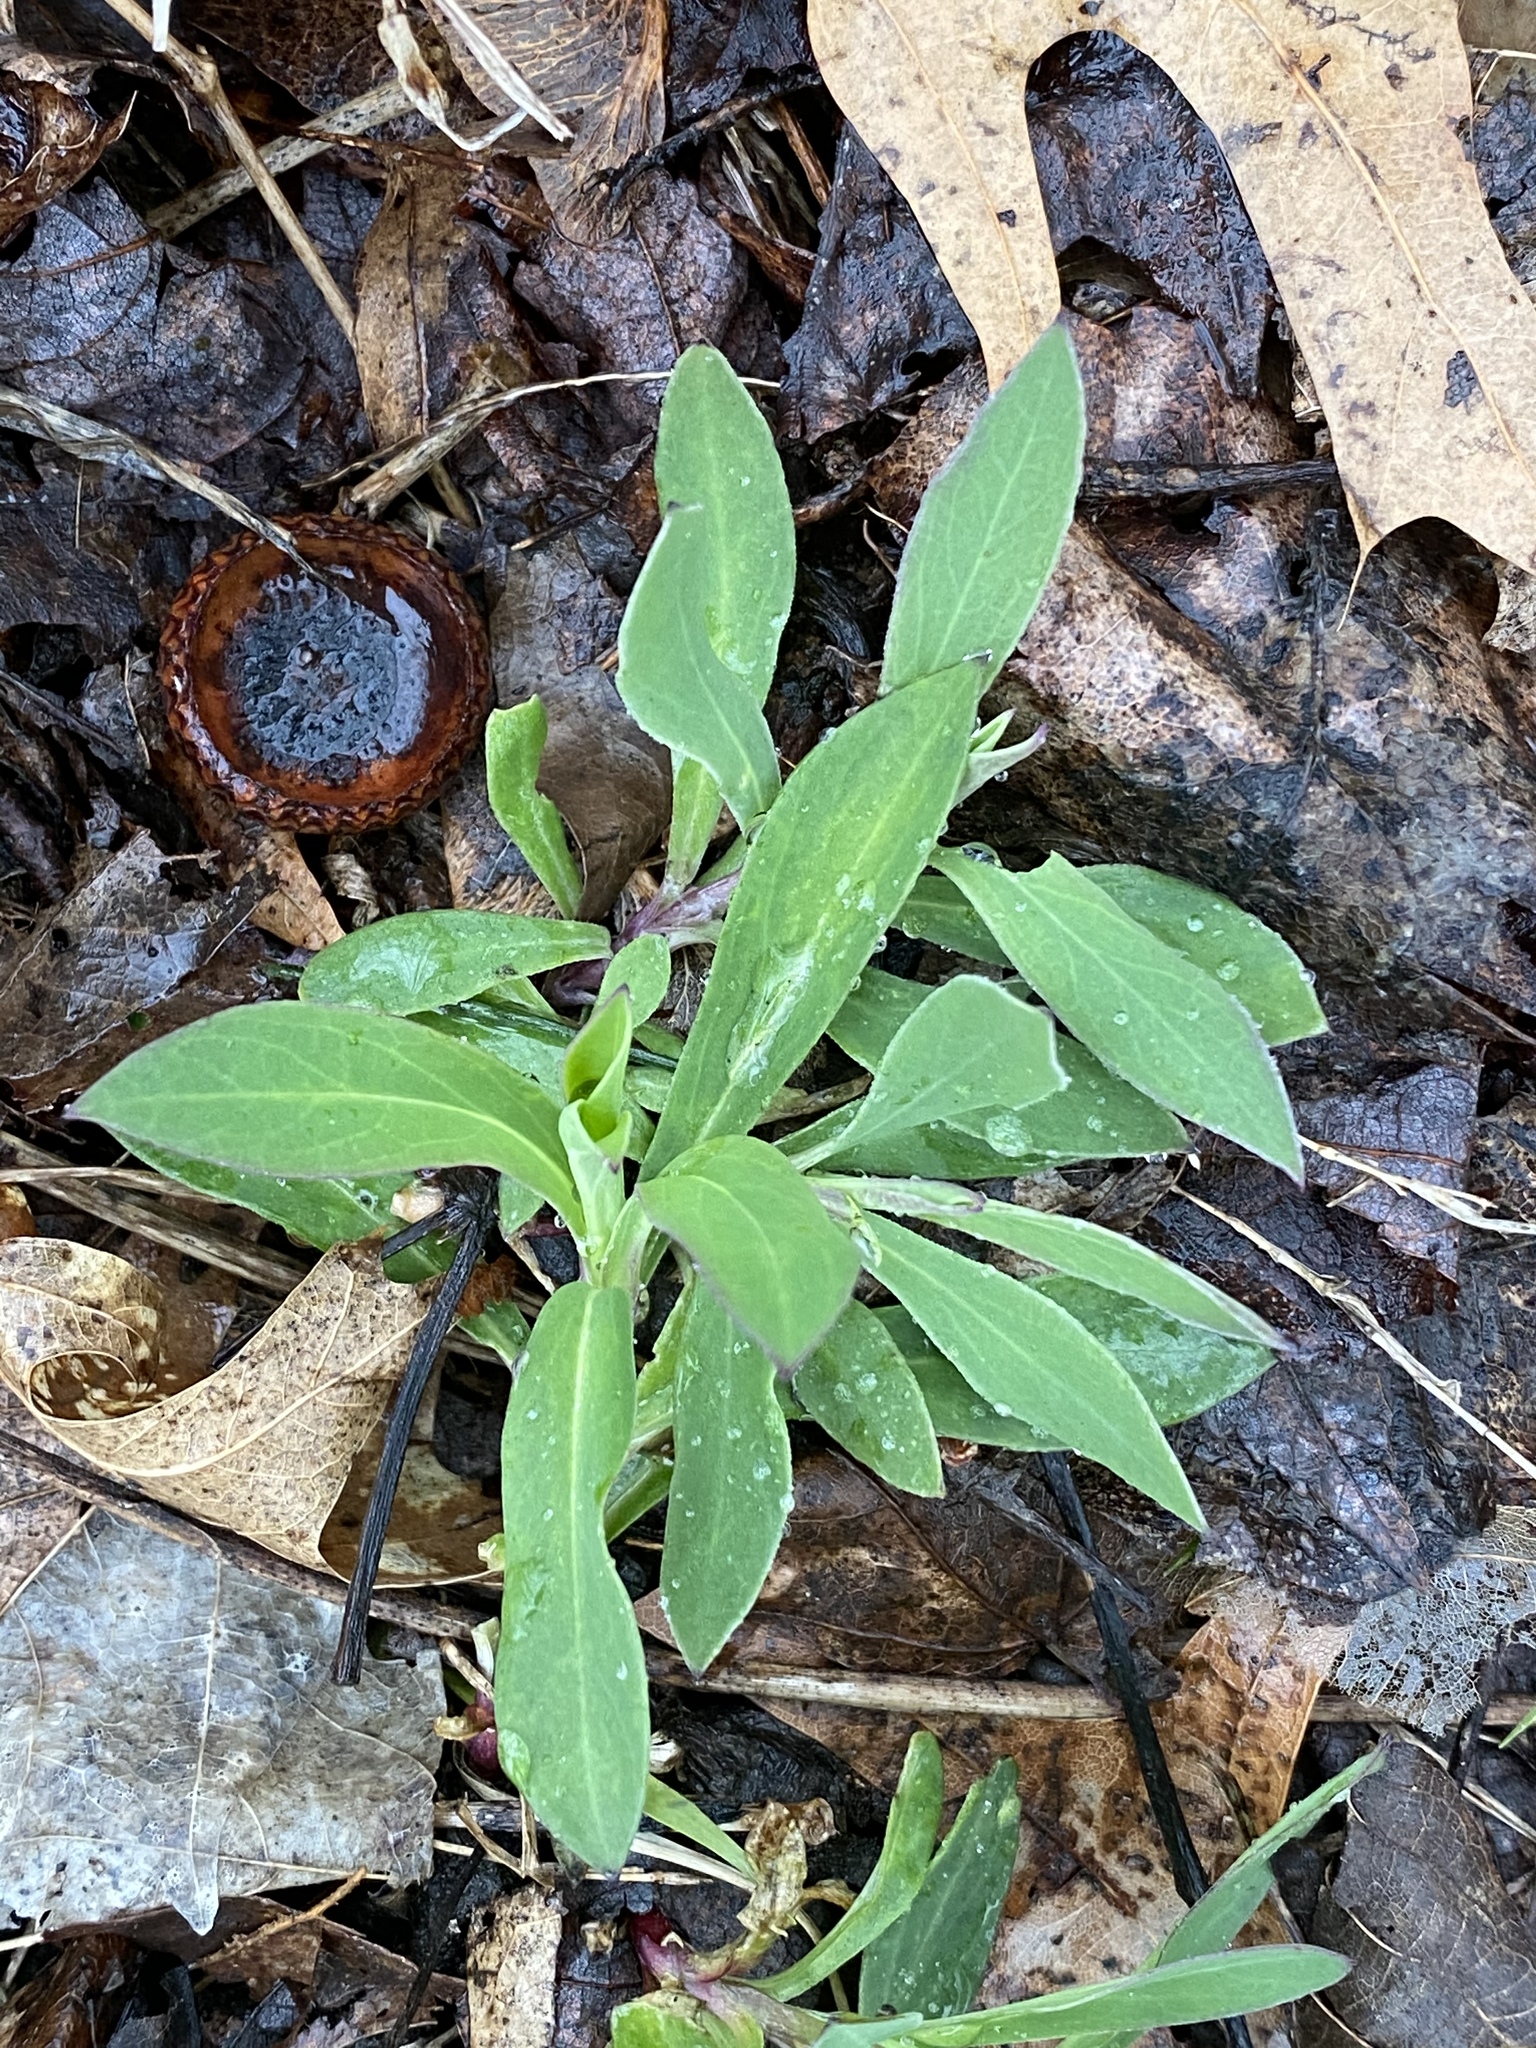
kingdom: Plantae
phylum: Tracheophyta
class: Magnoliopsida
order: Caryophyllales
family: Caryophyllaceae
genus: Silene
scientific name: Silene vulgaris
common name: Bladder campion
